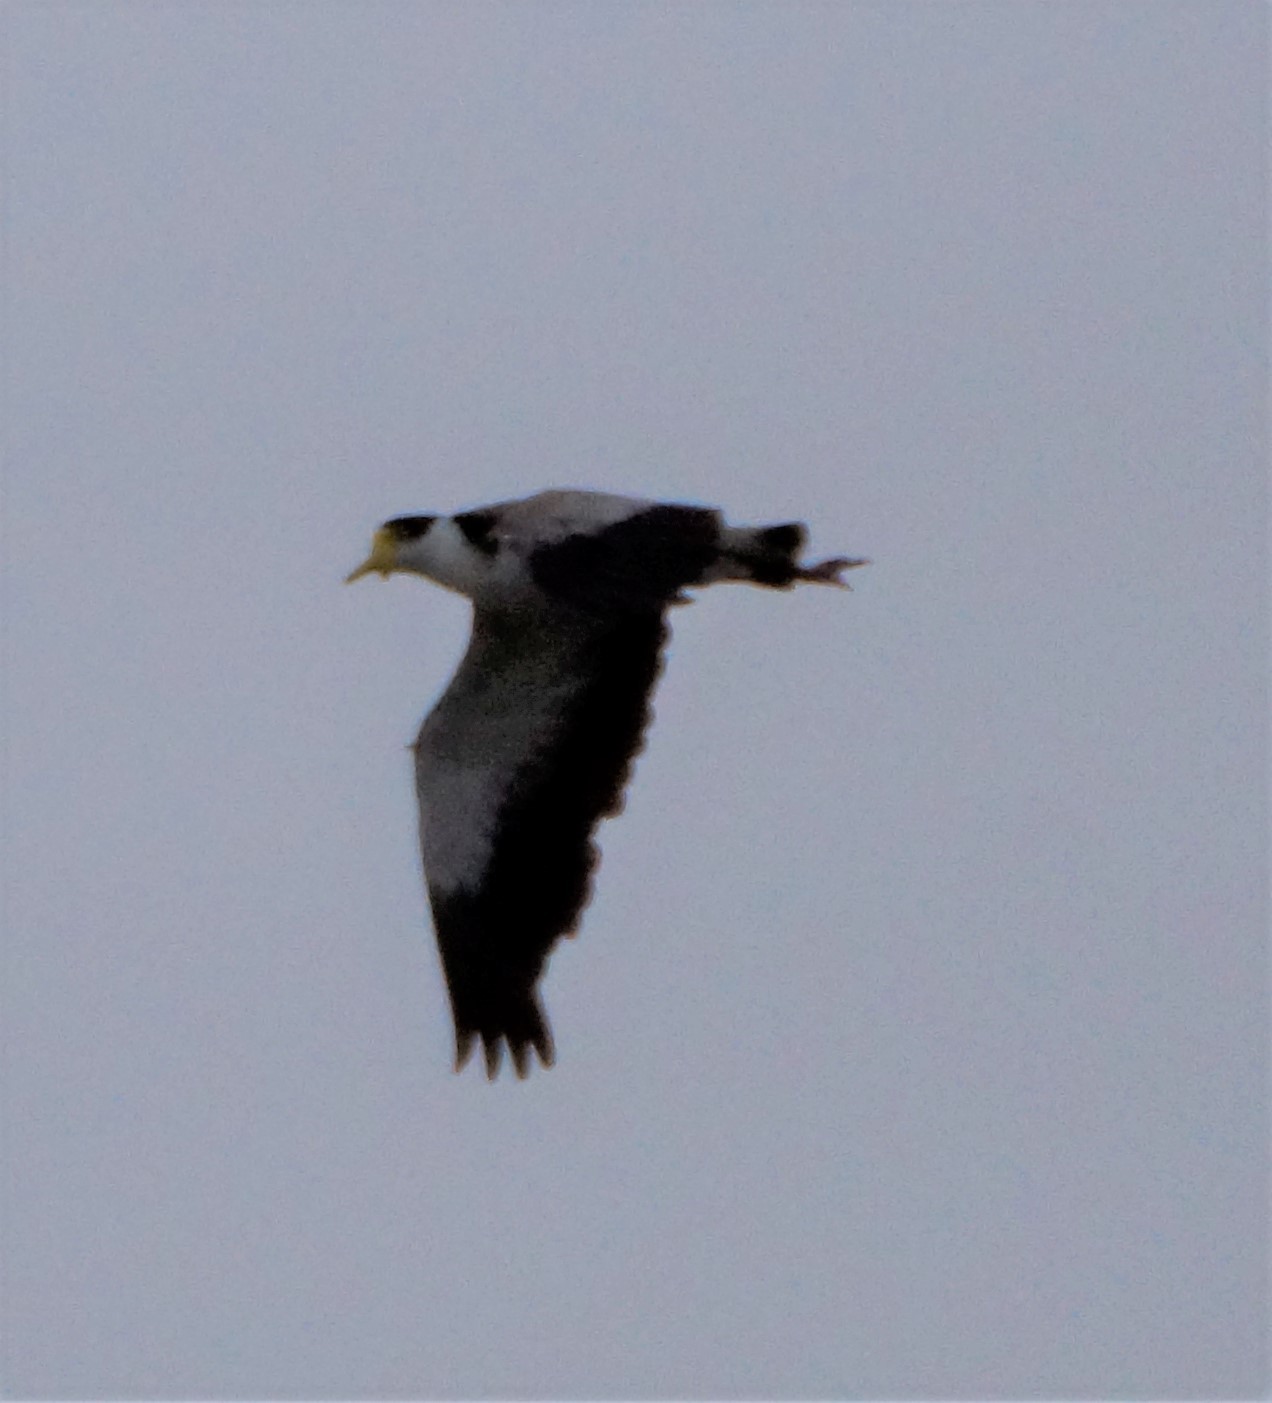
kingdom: Animalia
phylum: Chordata
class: Aves
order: Charadriiformes
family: Charadriidae
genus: Vanellus
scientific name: Vanellus miles
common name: Masked lapwing
